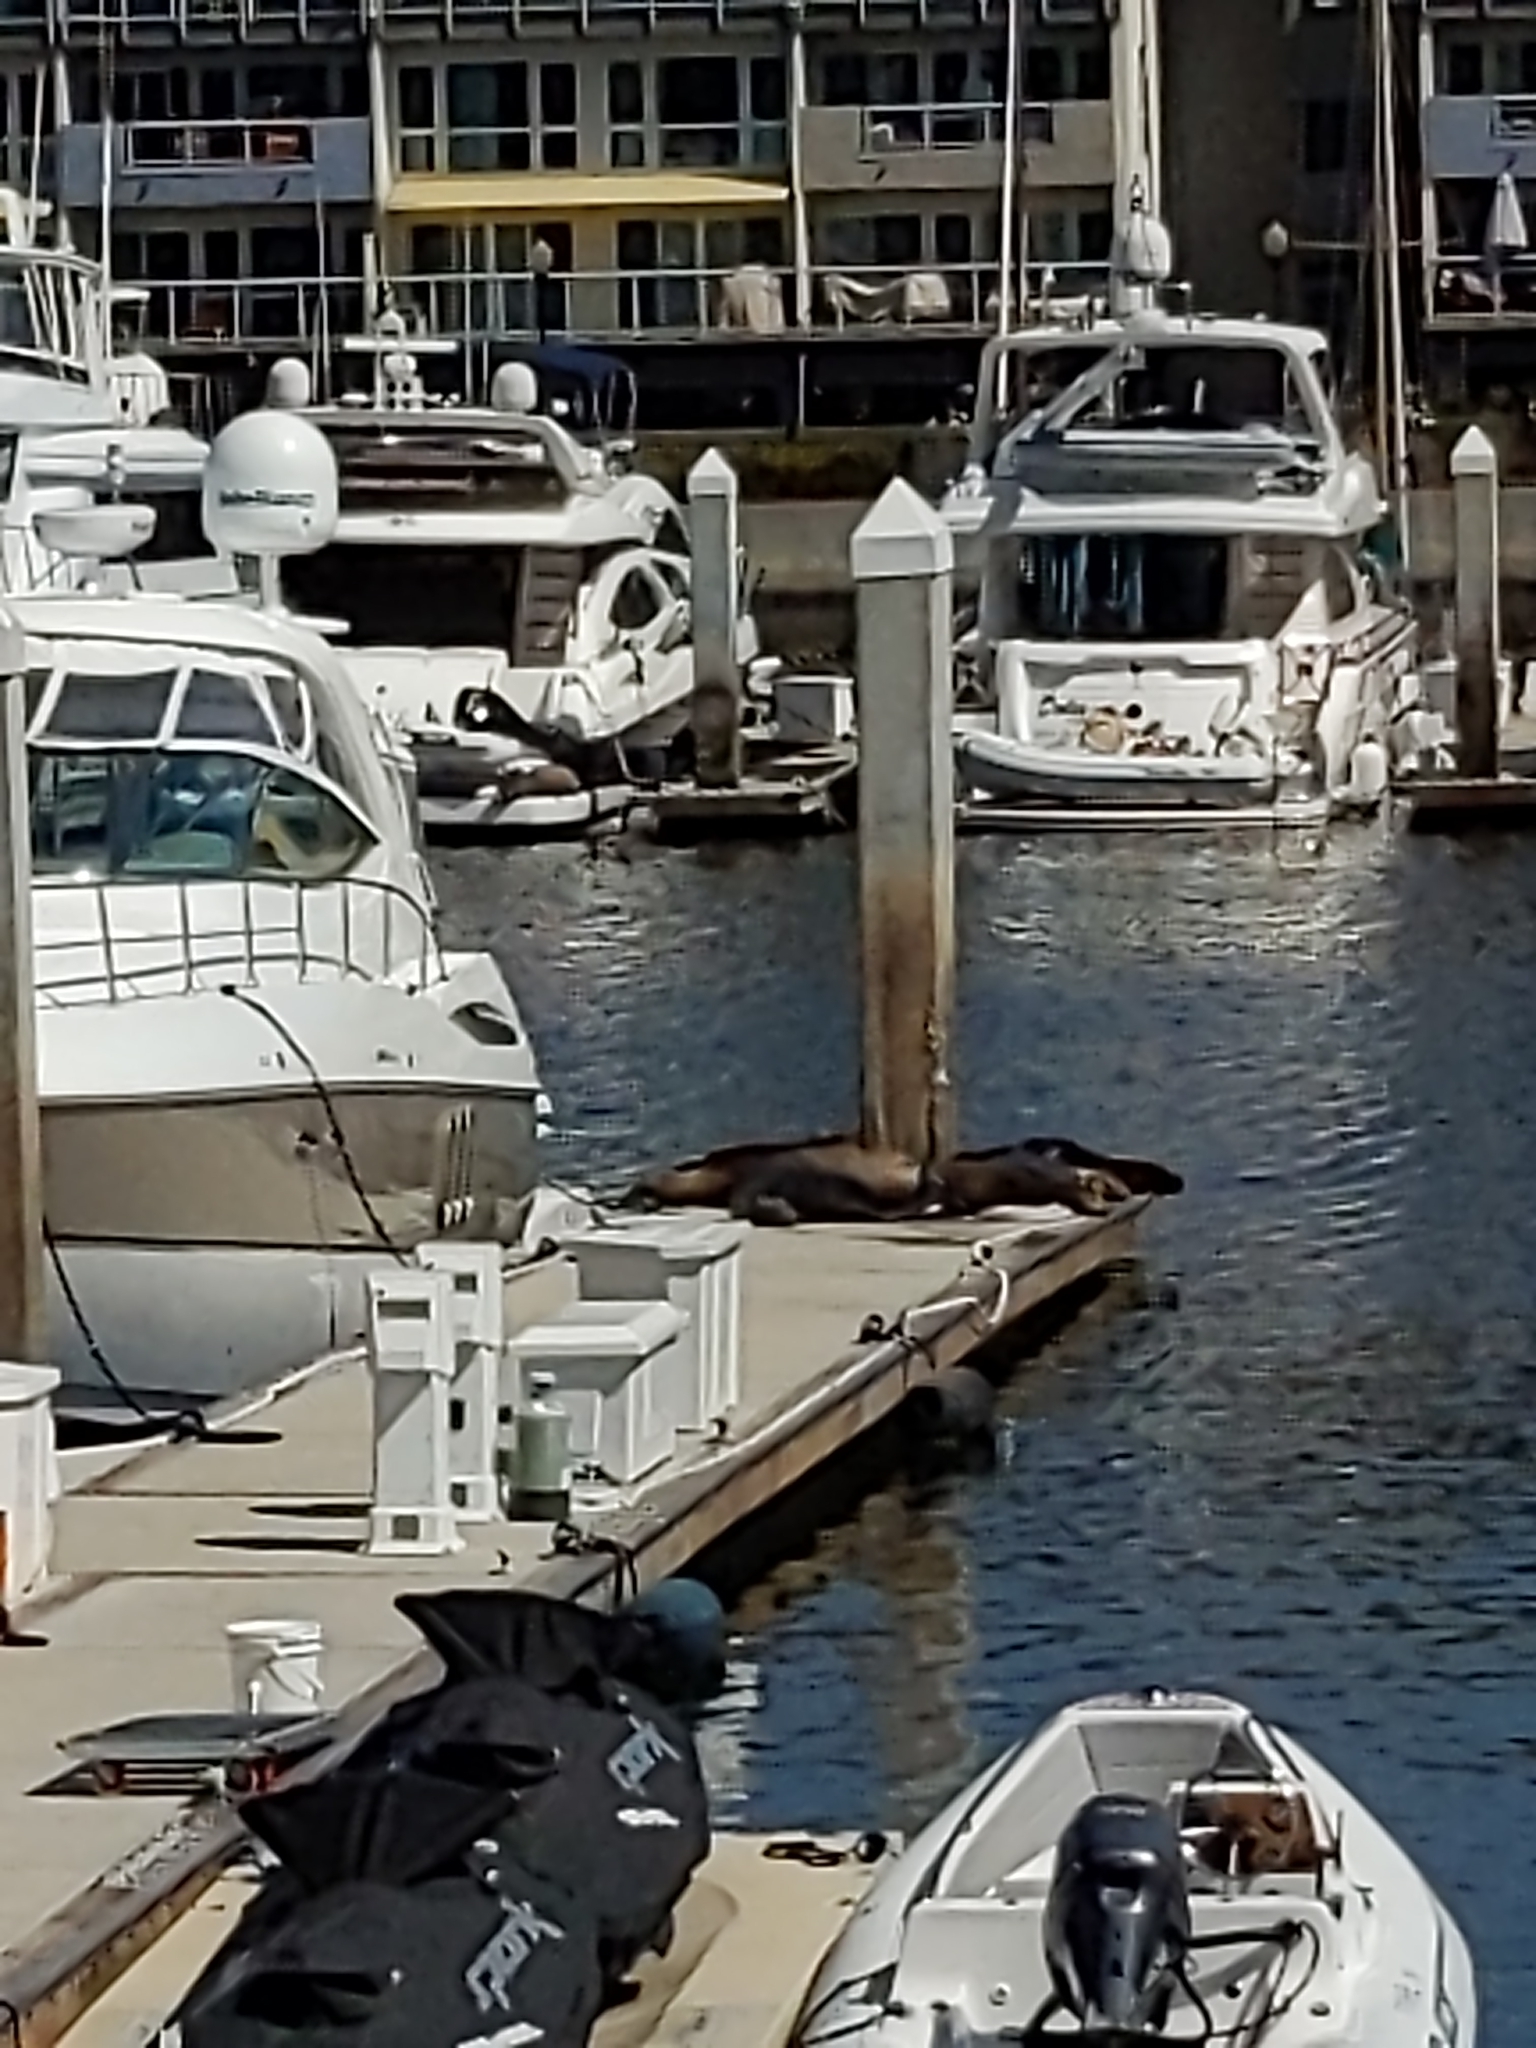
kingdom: Animalia
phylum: Chordata
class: Mammalia
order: Carnivora
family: Otariidae
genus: Zalophus
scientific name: Zalophus californianus
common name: California sea lion
